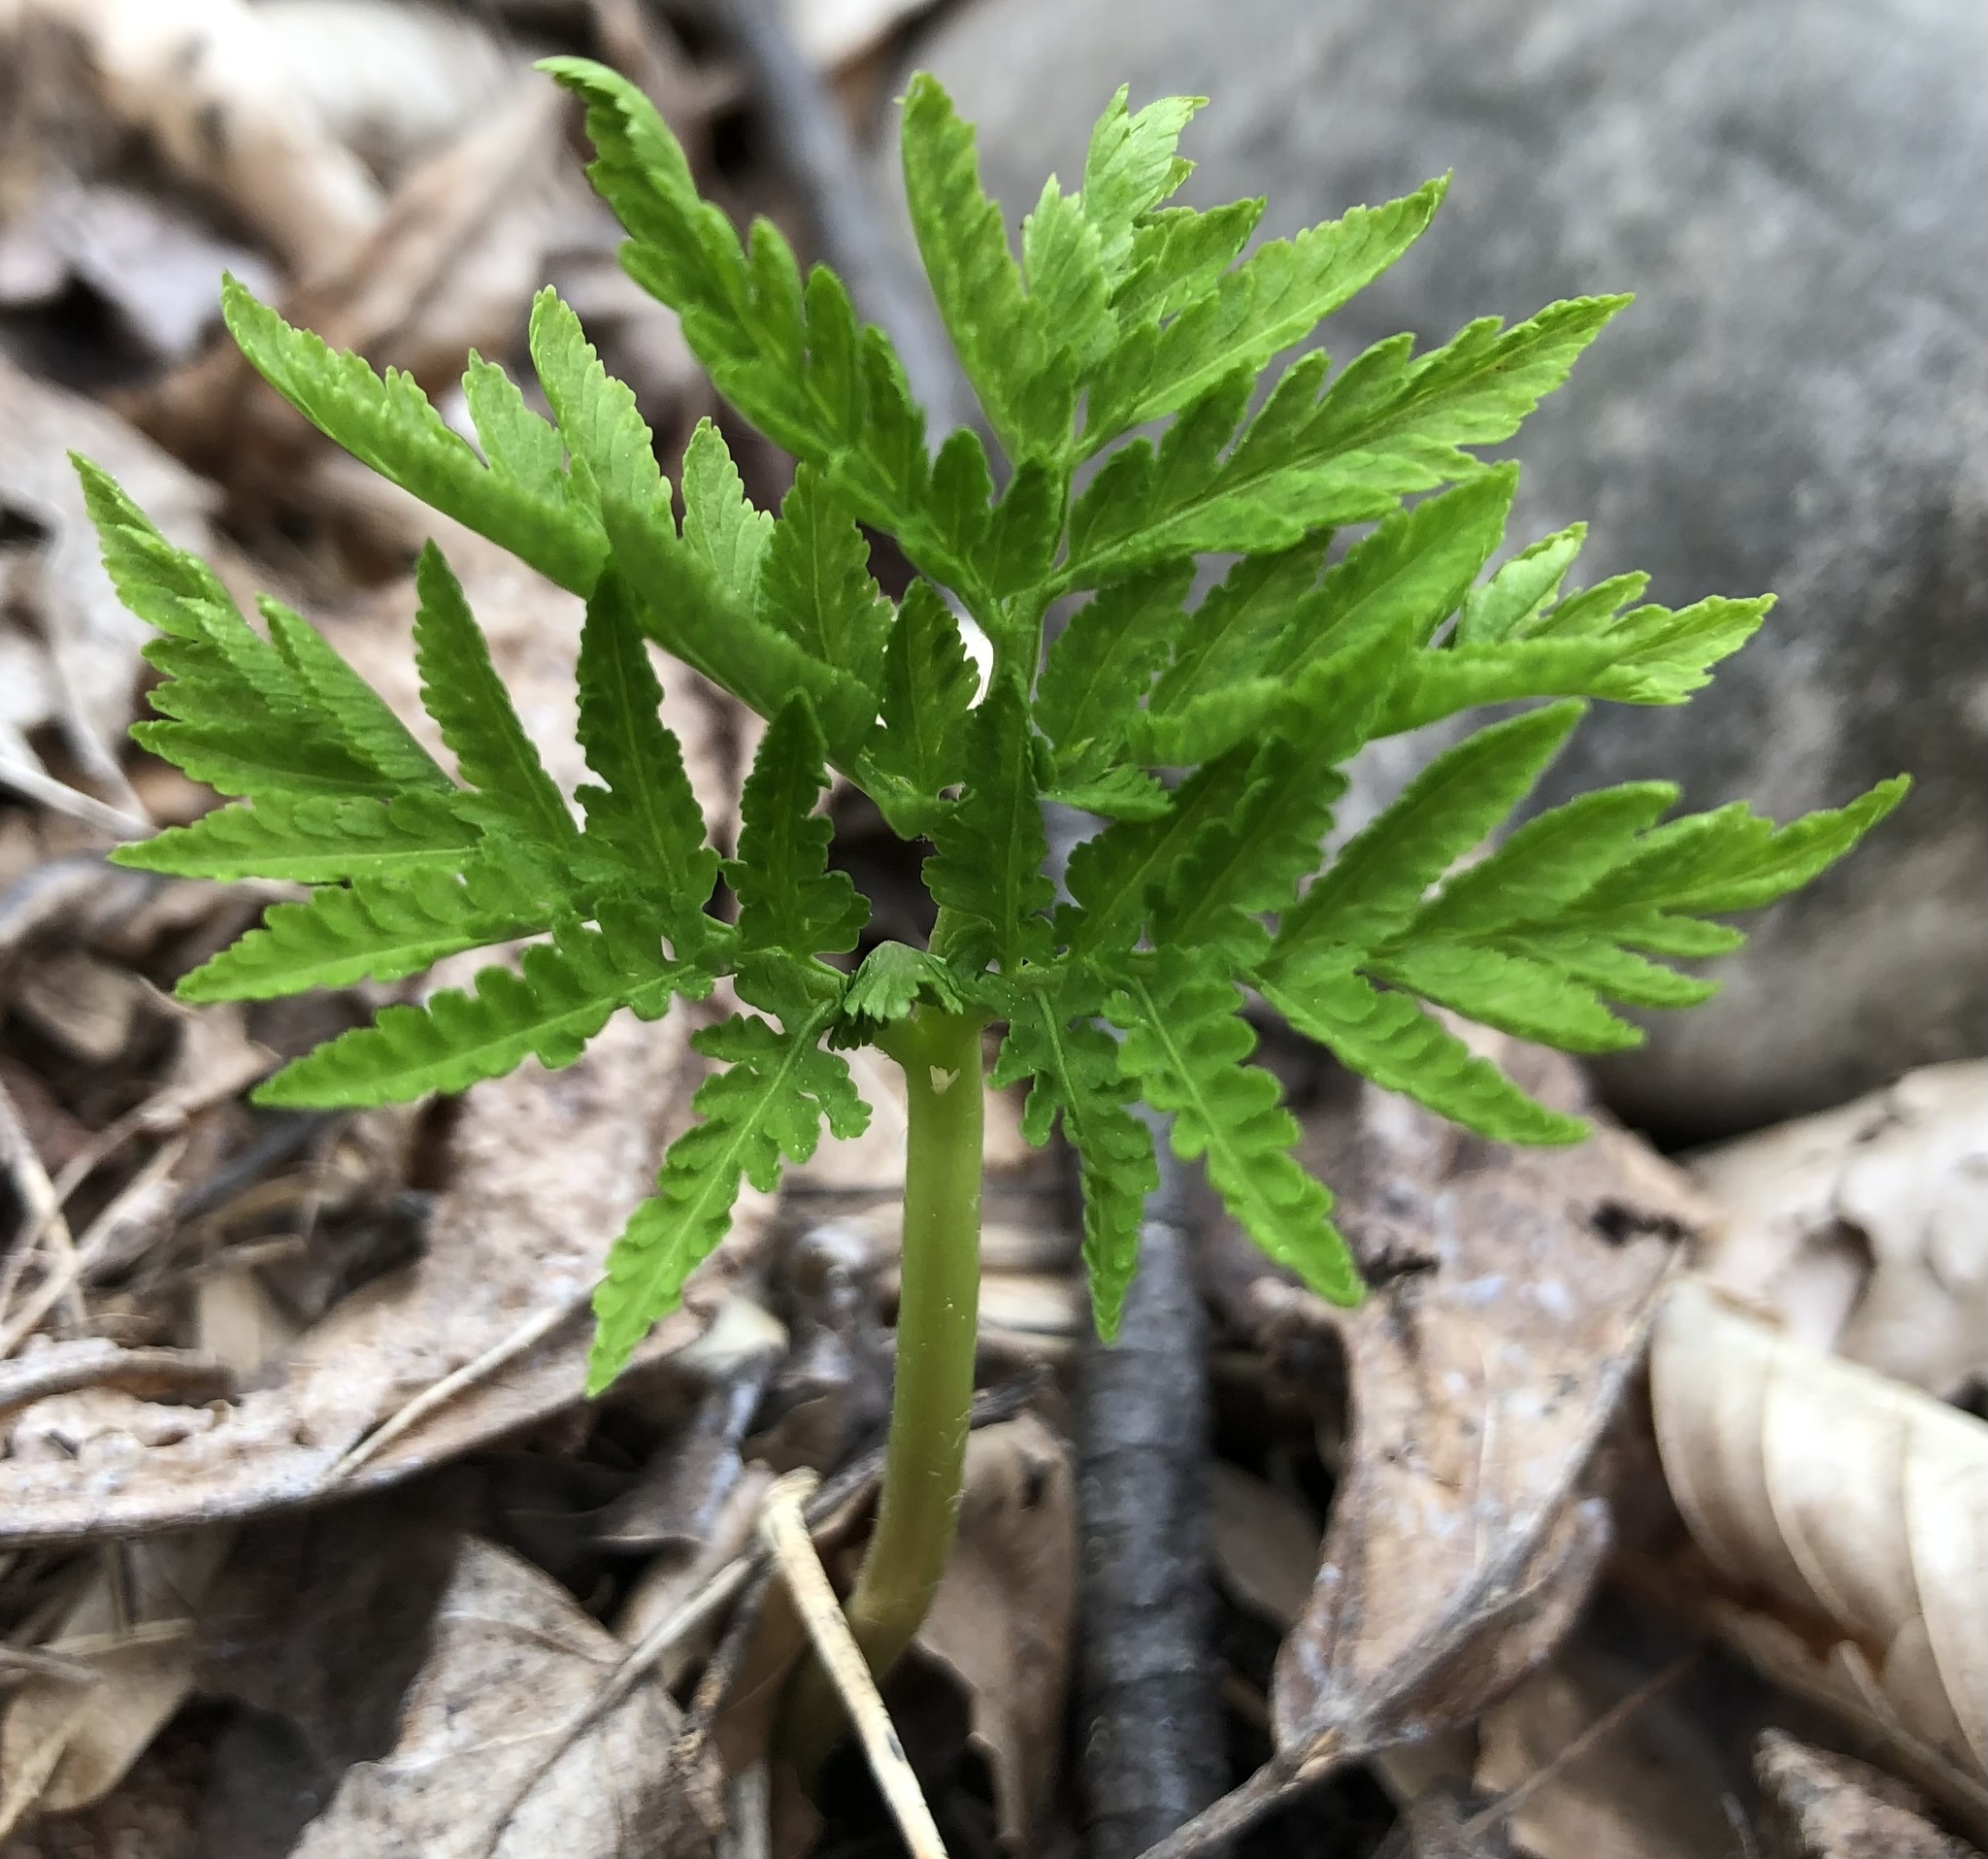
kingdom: Plantae
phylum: Tracheophyta
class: Polypodiopsida
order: Ophioglossales
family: Ophioglossaceae
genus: Botrypus
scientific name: Botrypus virginianus
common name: Common grapefern
